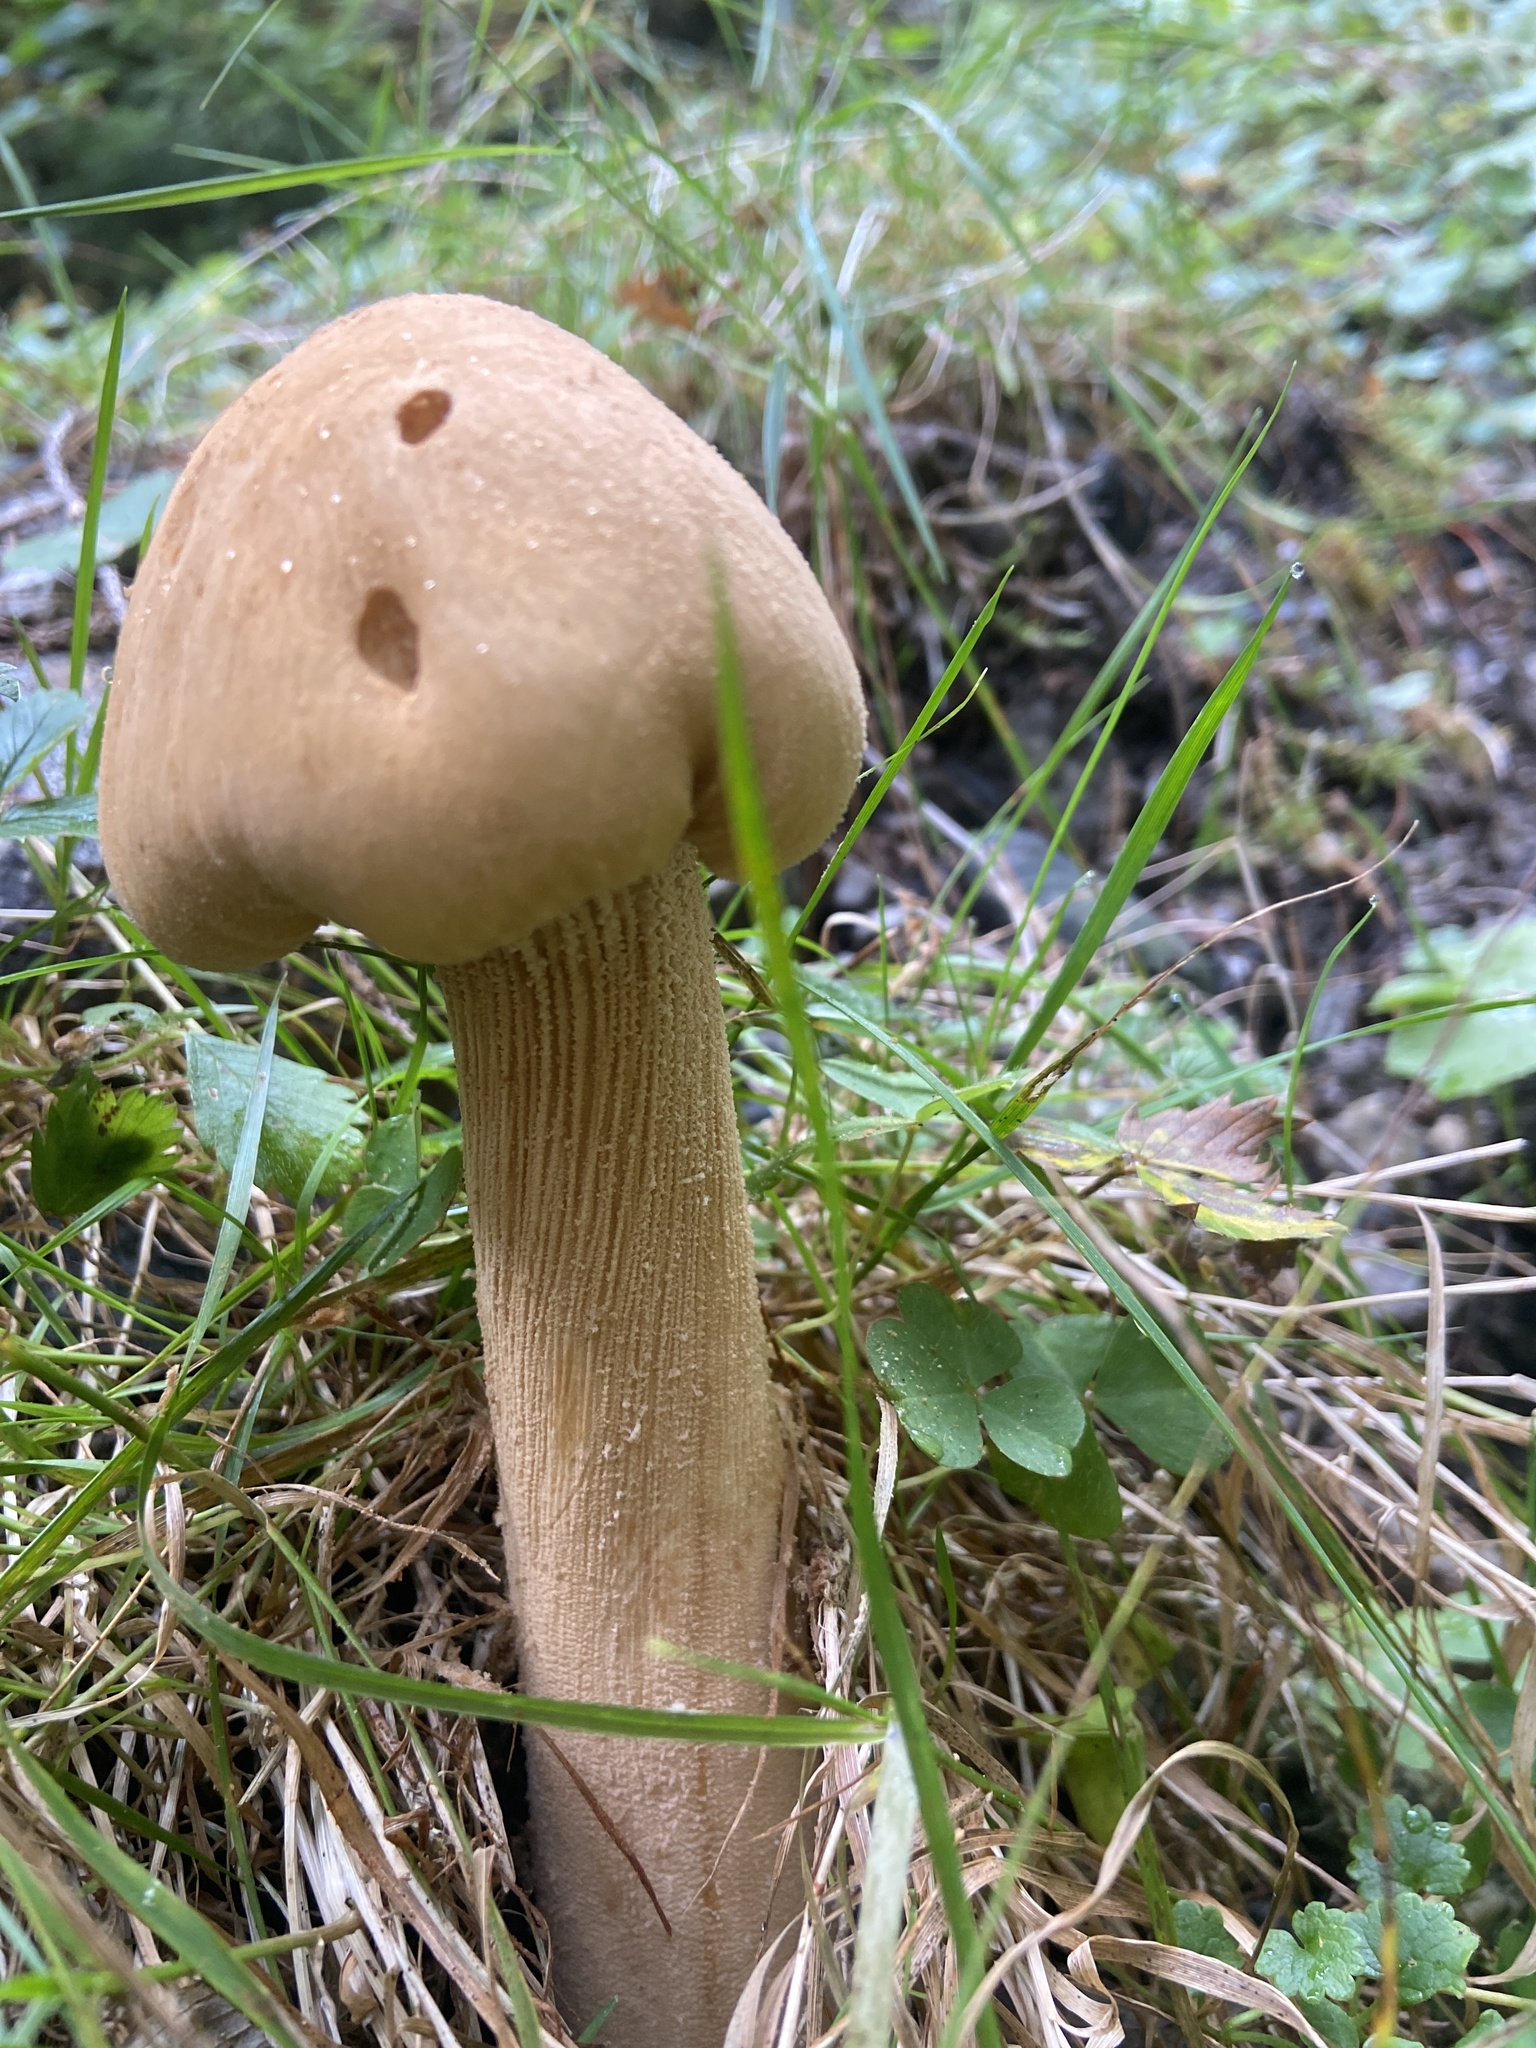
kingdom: Fungi
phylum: Basidiomycota
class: Agaricomycetes
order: Agaricales
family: Tricholomataceae
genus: Phaeolepiota
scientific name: Phaeolepiota aurea
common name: Golden bootleg
